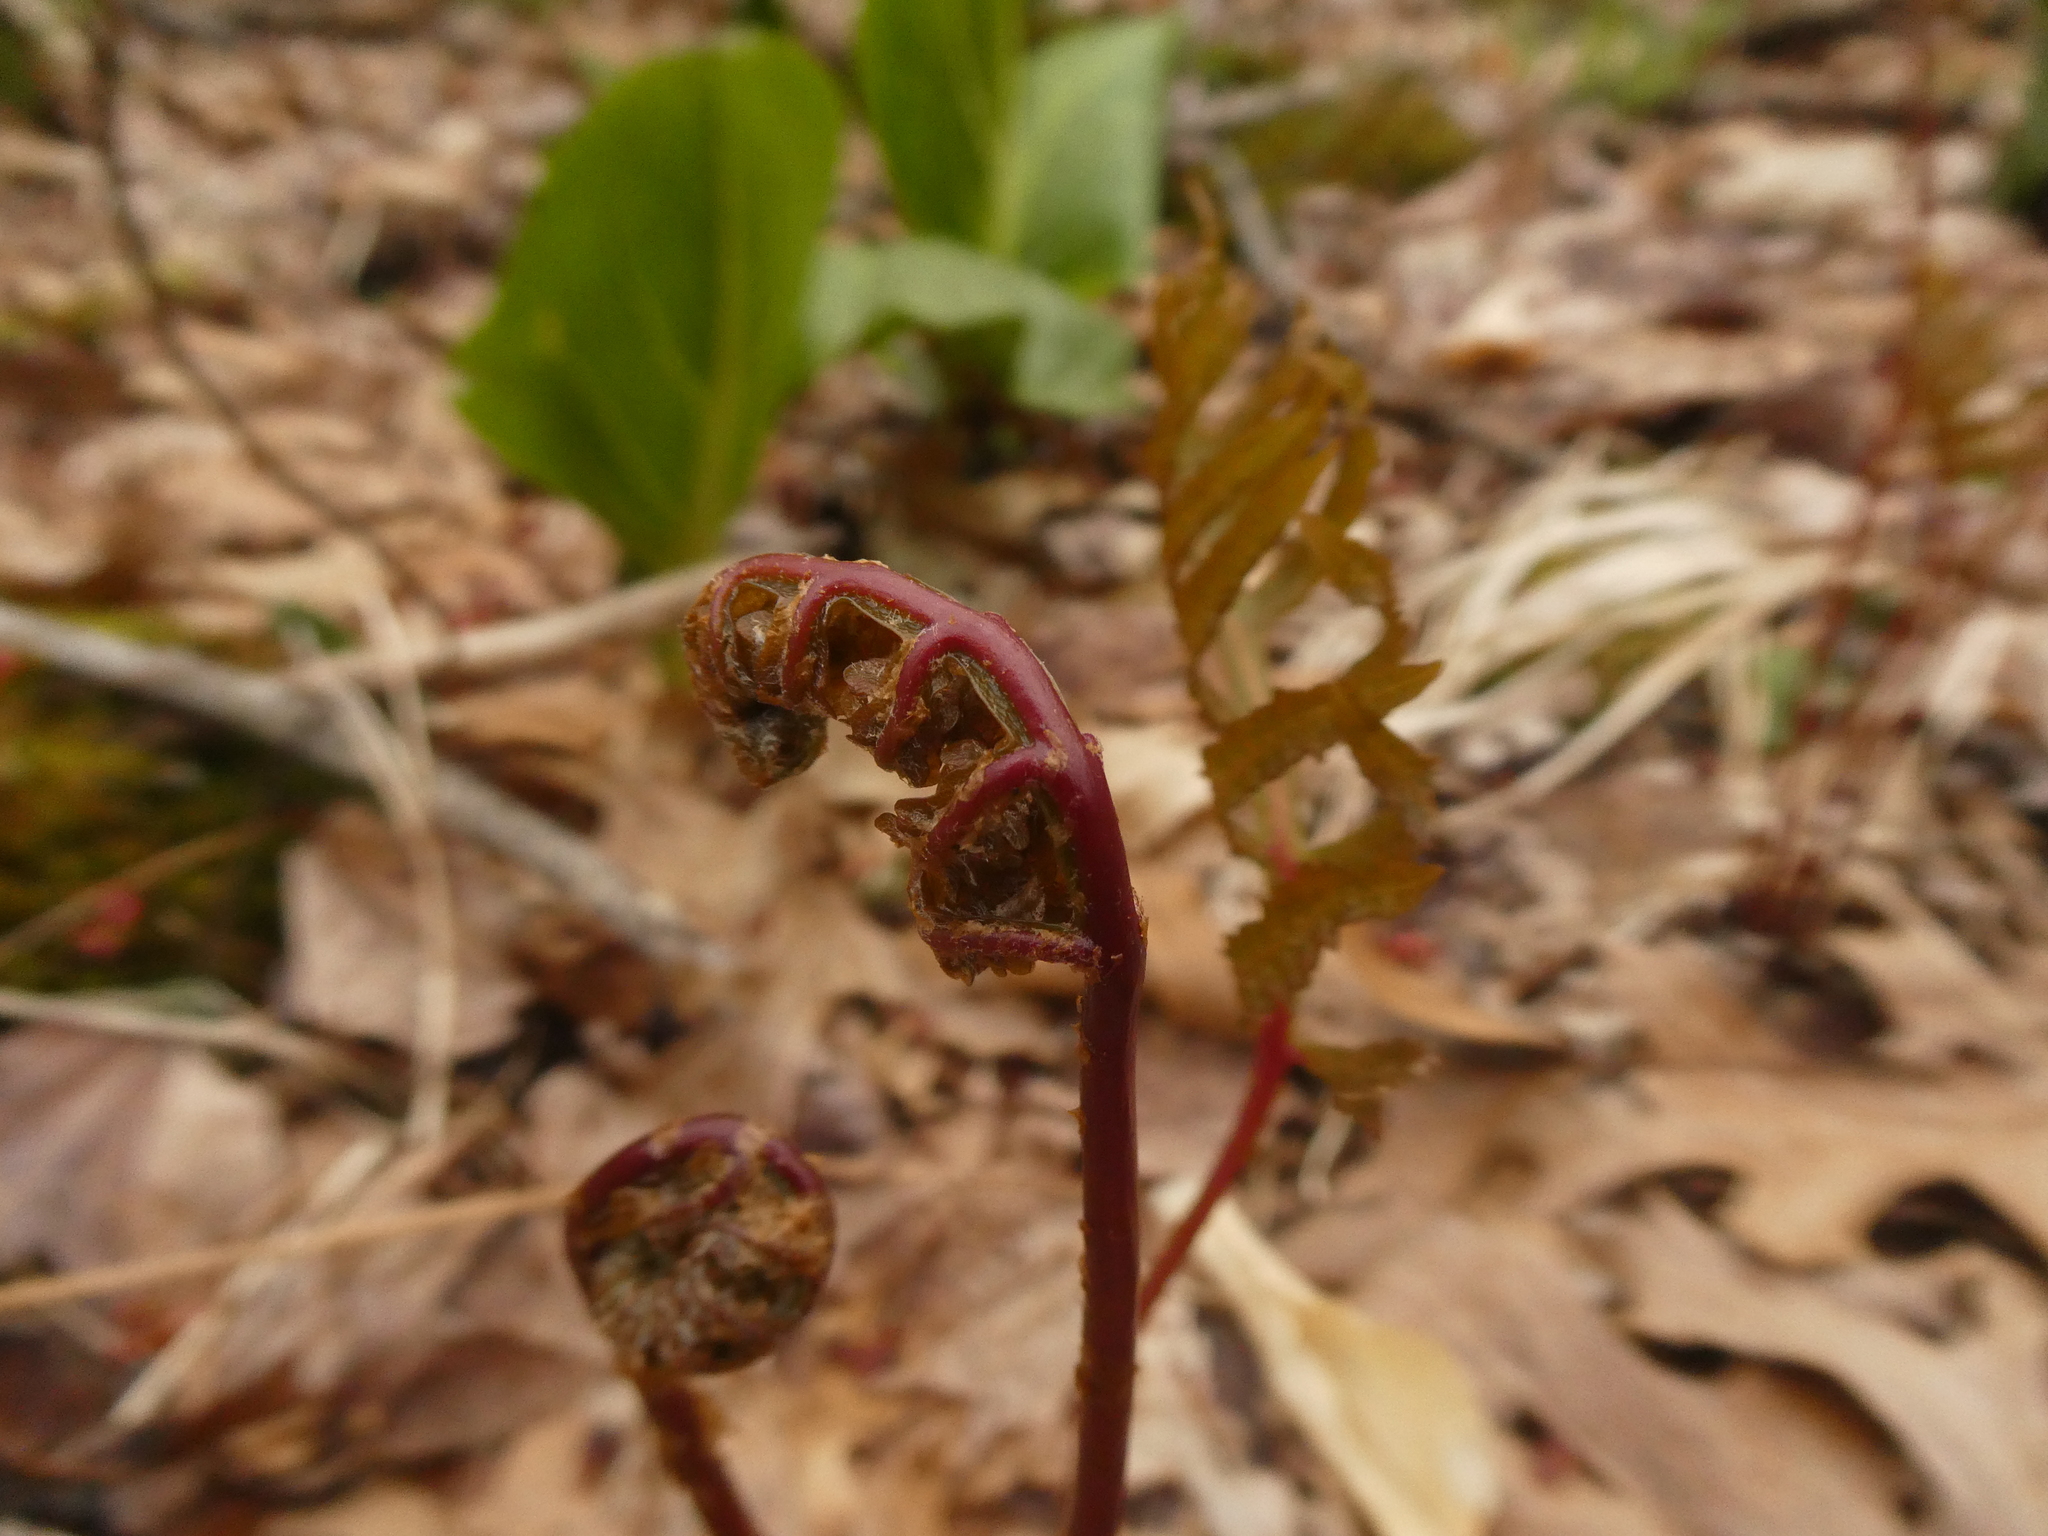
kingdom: Plantae
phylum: Tracheophyta
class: Polypodiopsida
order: Polypodiales
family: Onocleaceae
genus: Onoclea
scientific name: Onoclea sensibilis
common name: Sensitive fern
